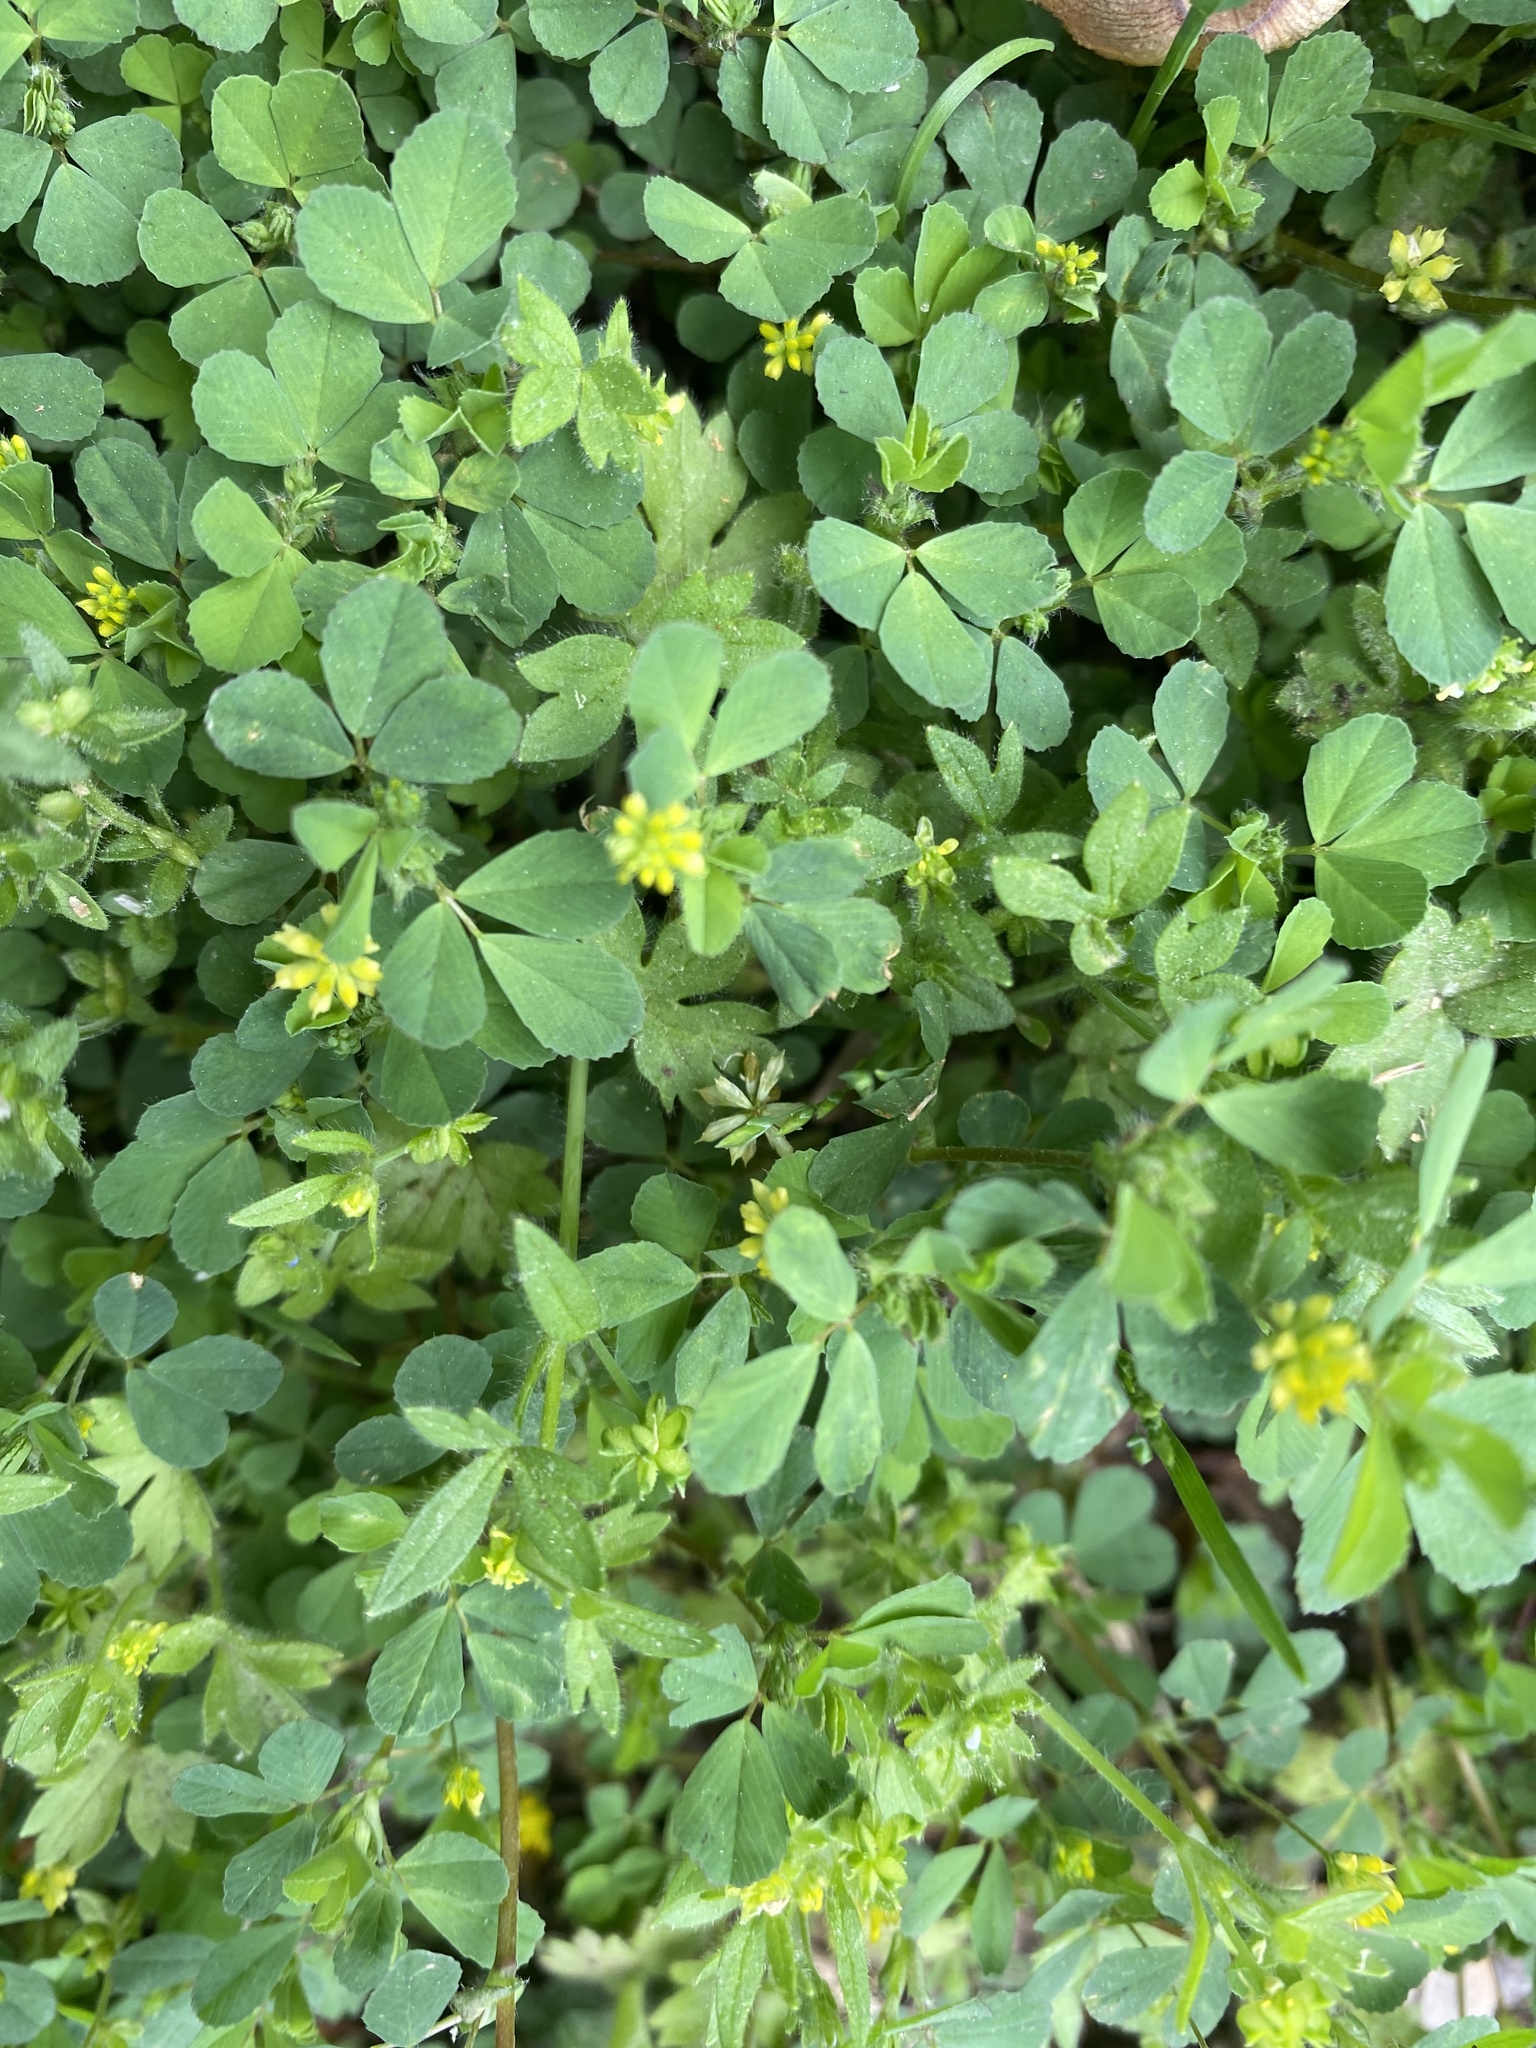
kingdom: Plantae
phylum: Tracheophyta
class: Magnoliopsida
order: Fabales
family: Fabaceae
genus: Trifolium
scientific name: Trifolium dubium
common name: Suckling clover
